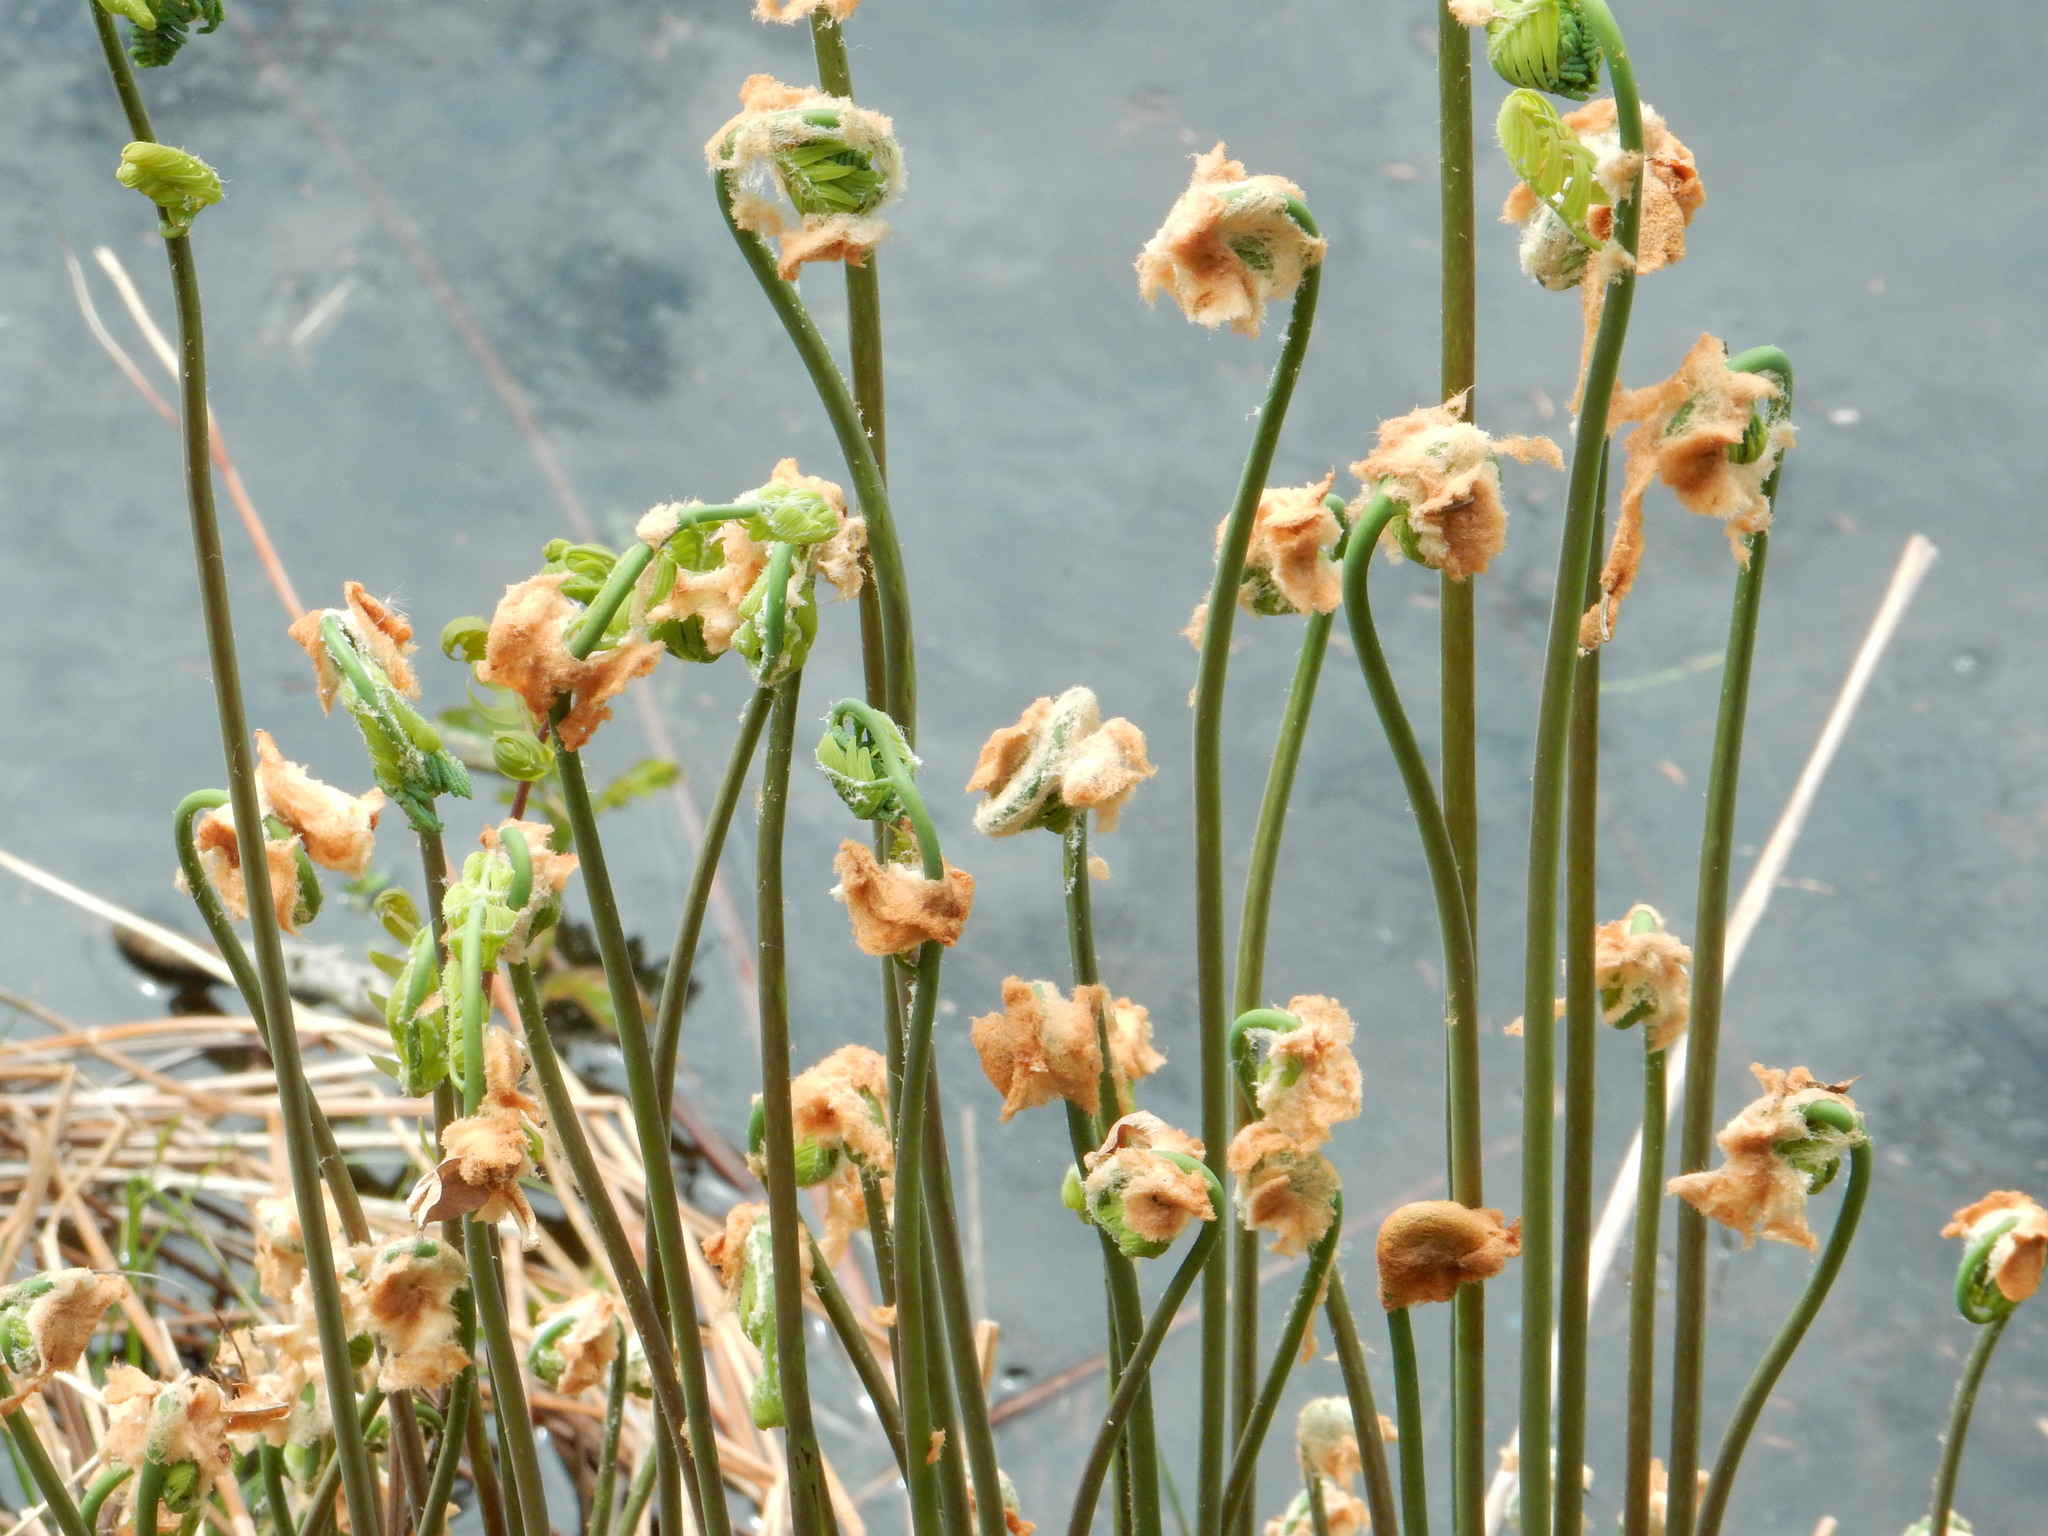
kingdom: Plantae
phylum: Tracheophyta
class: Polypodiopsida
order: Osmundales
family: Osmundaceae
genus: Osmundastrum
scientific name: Osmundastrum cinnamomeum
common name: Cinnamon fern
